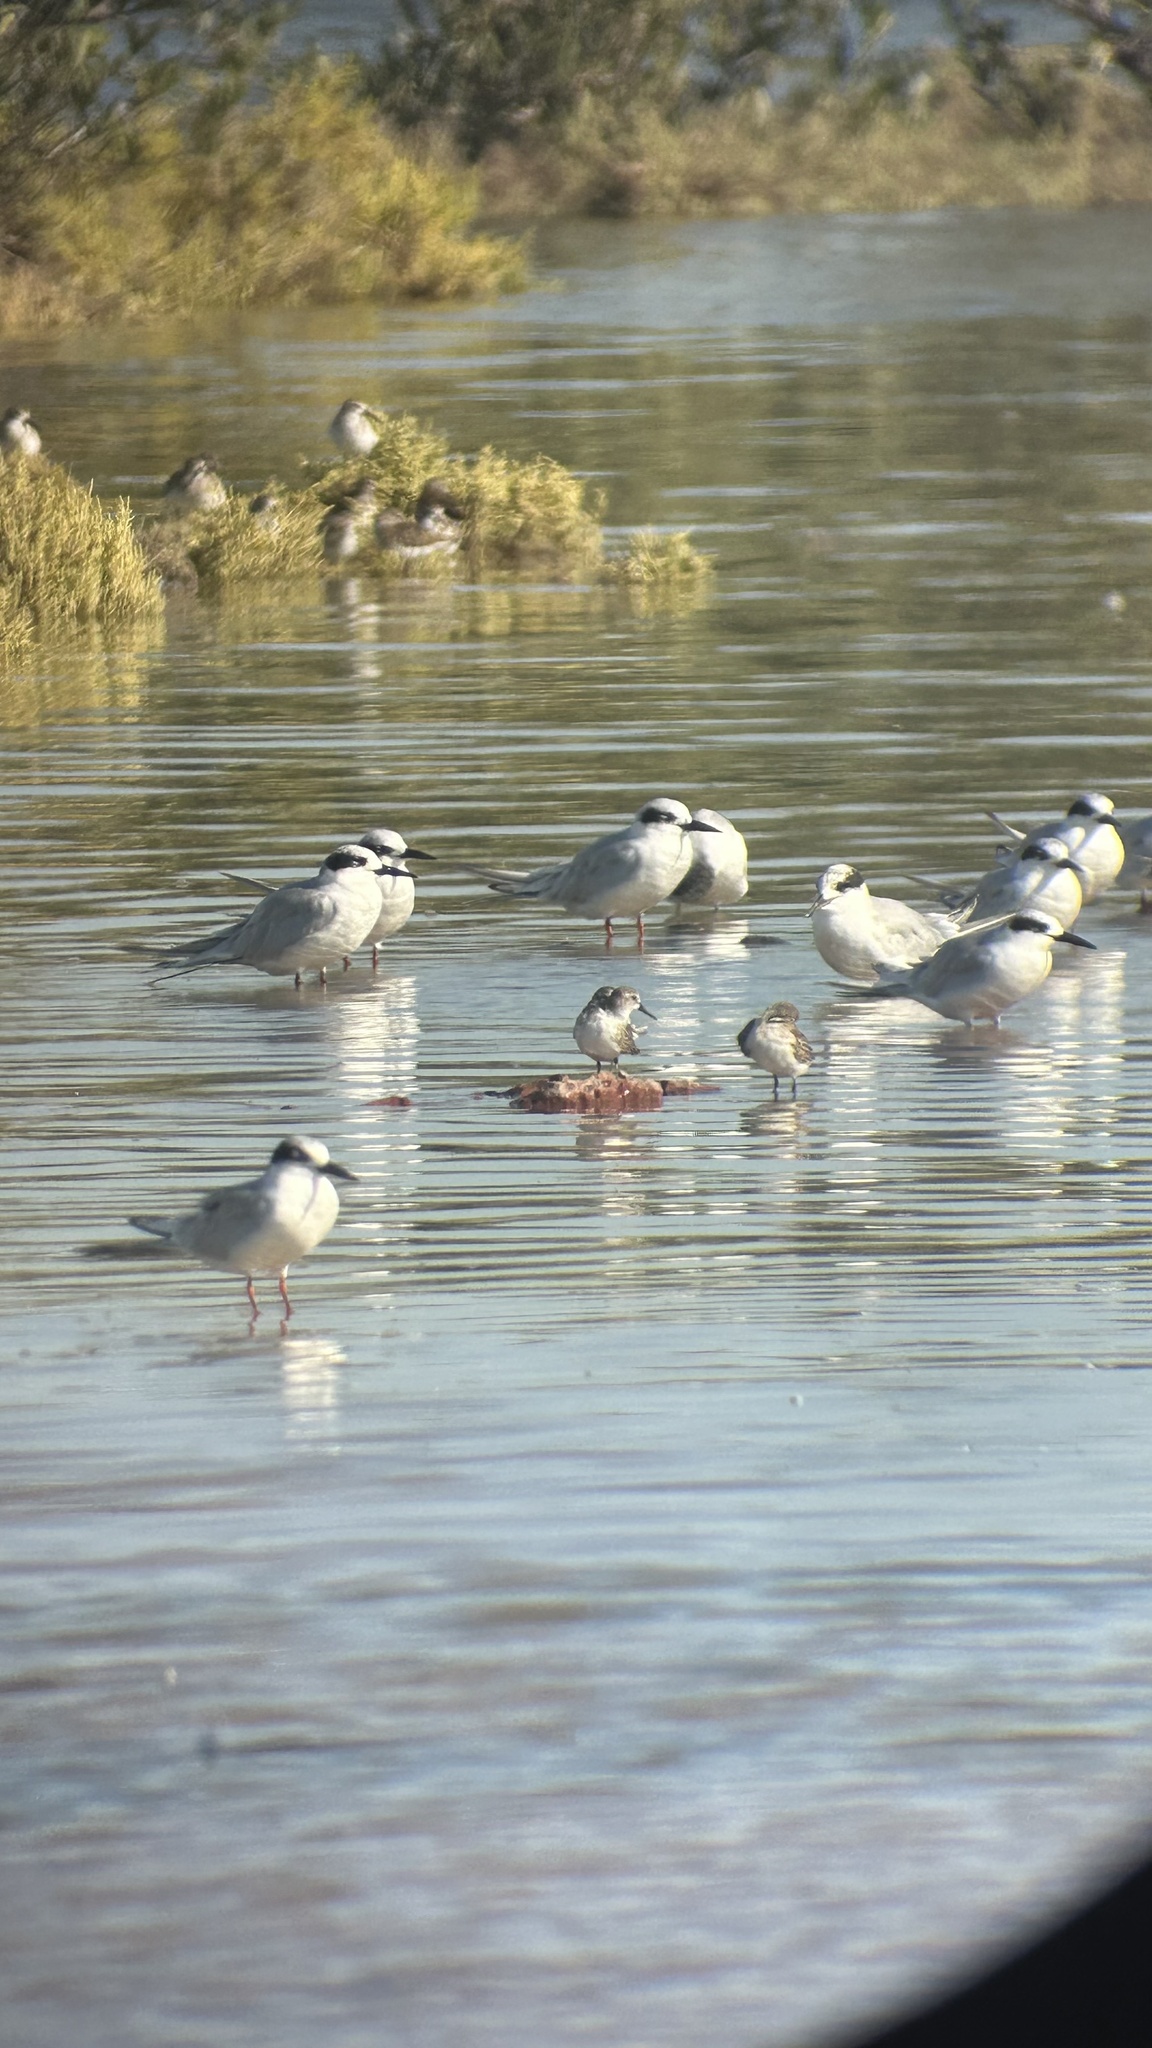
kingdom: Animalia
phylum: Chordata
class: Aves
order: Charadriiformes
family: Laridae
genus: Sterna
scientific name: Sterna forsteri
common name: Forster's tern
